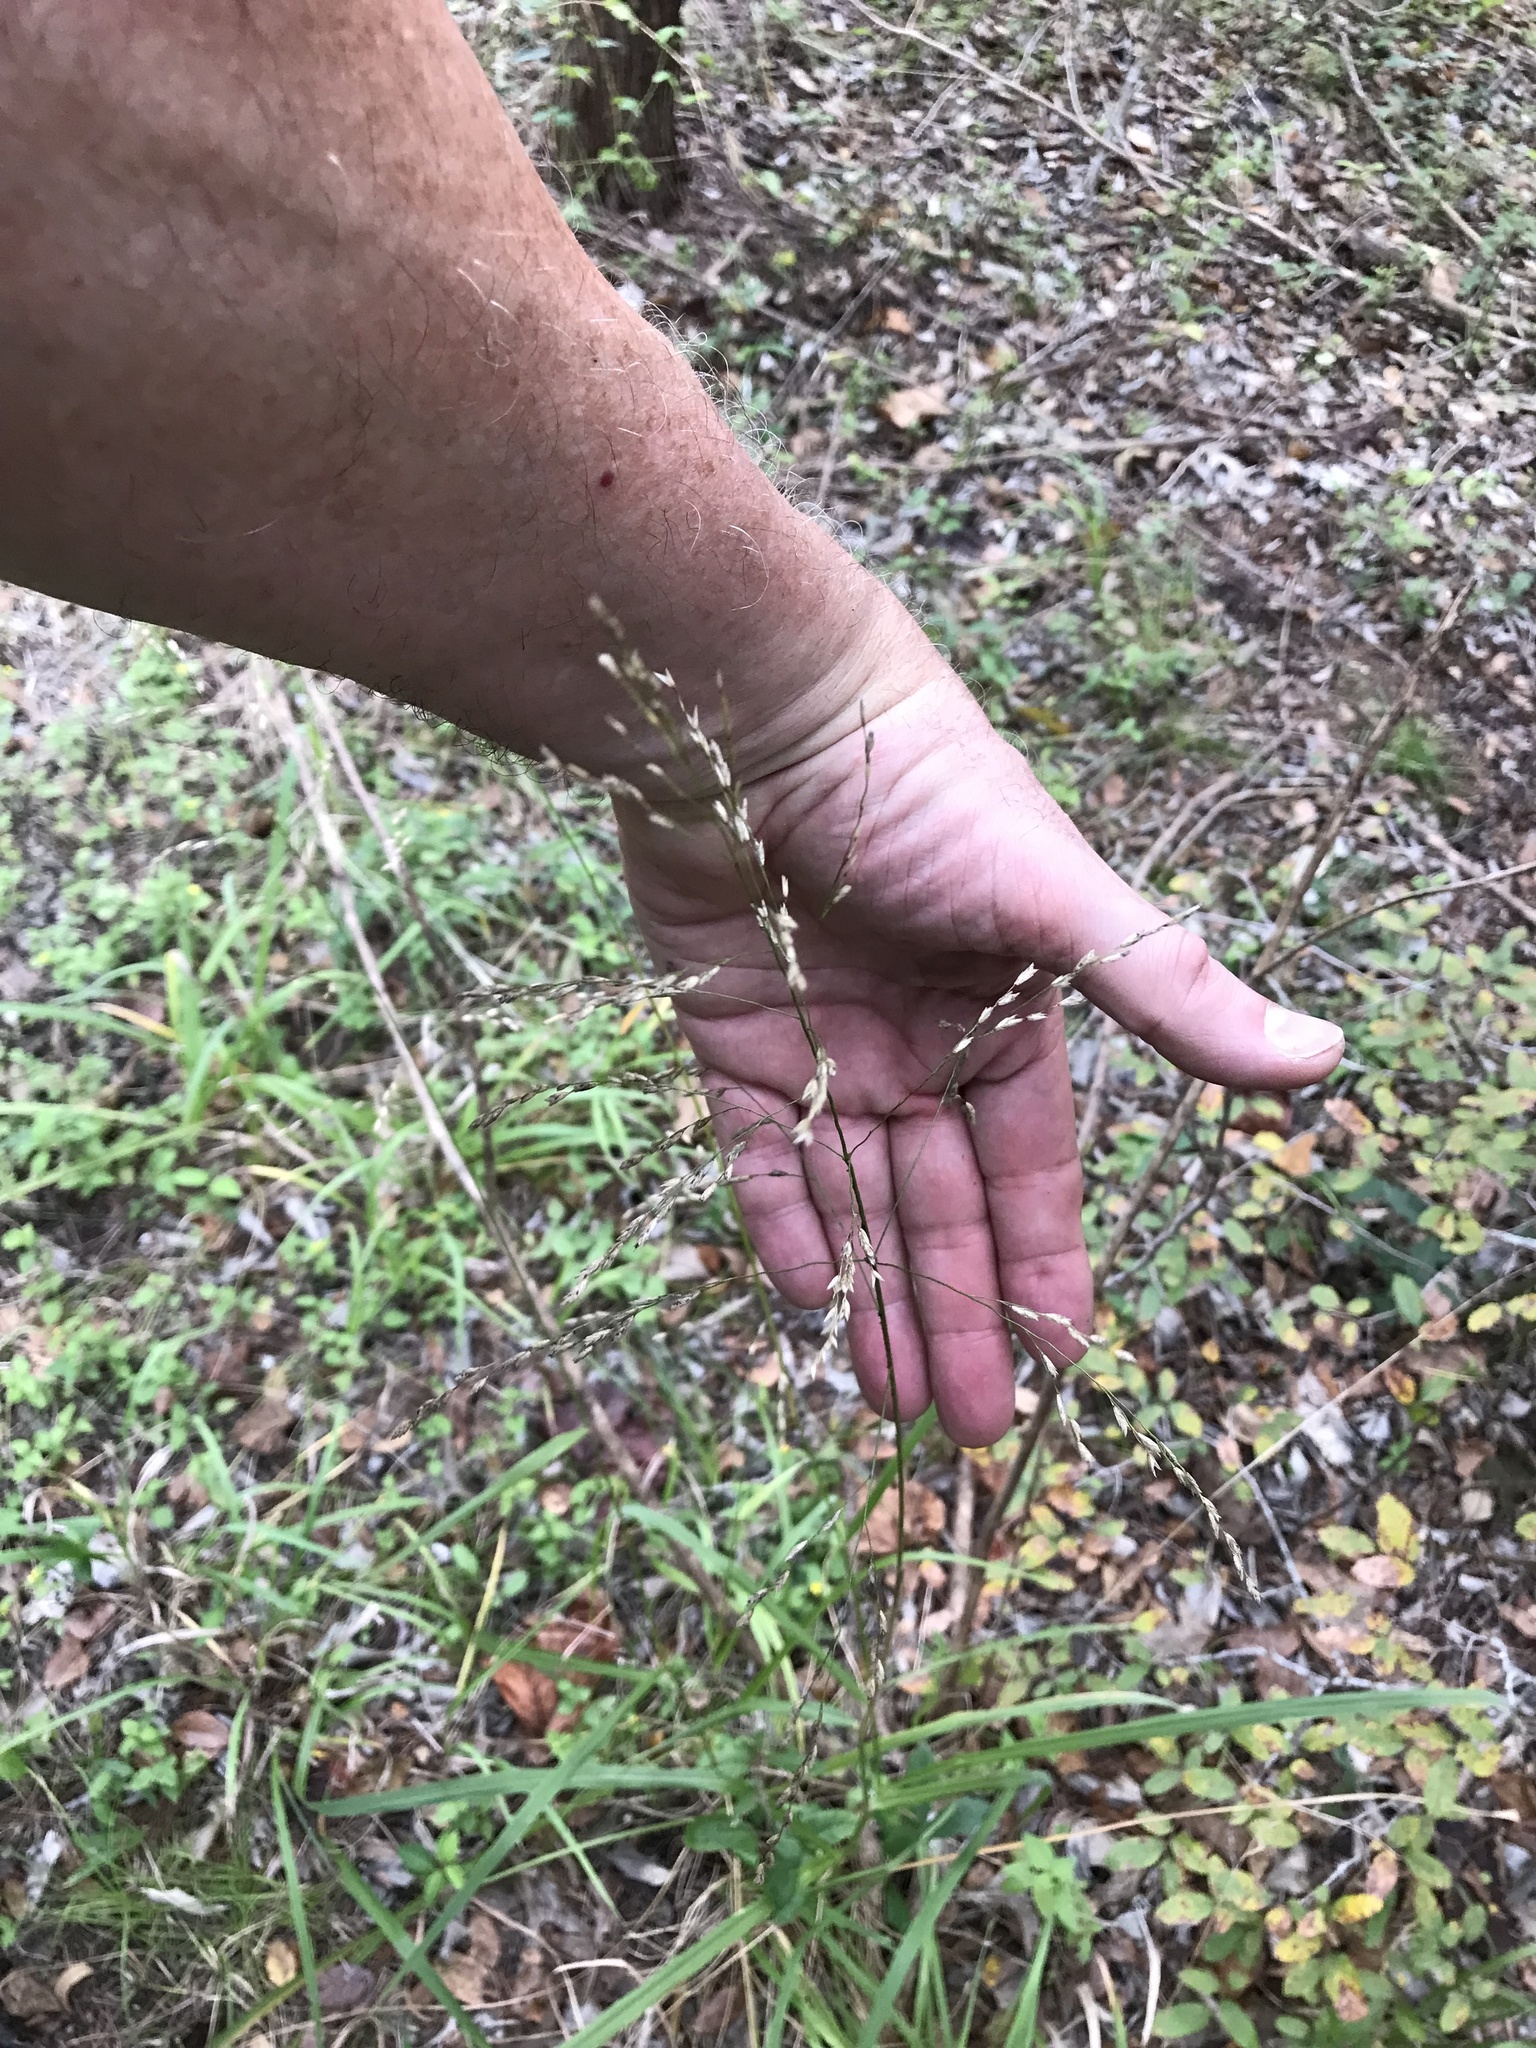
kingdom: Plantae
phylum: Tracheophyta
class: Liliopsida
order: Poales
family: Poaceae
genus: Tridens
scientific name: Tridens flavus
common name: Purpletop
